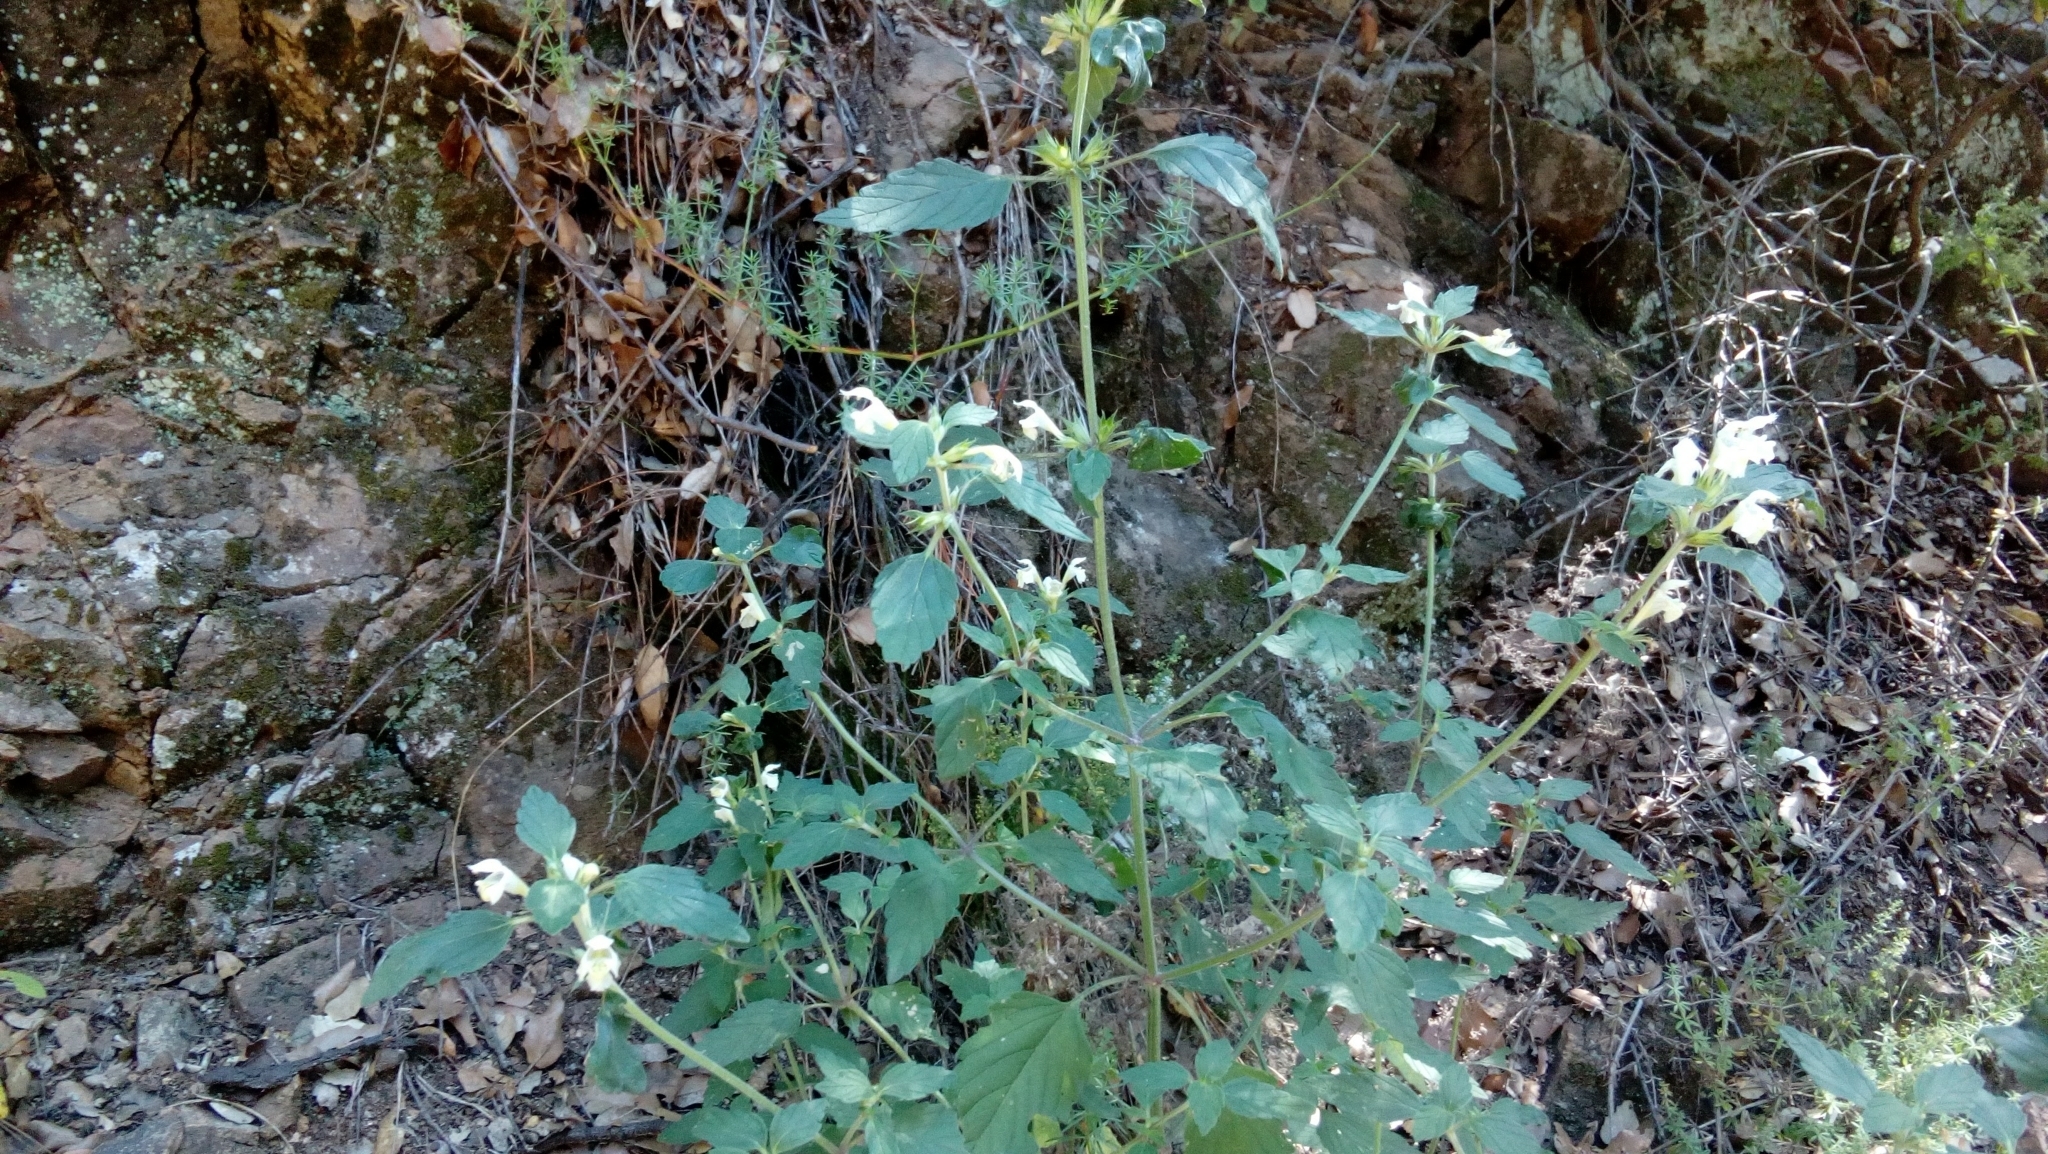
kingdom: Plantae
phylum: Tracheophyta
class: Magnoliopsida
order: Lamiales
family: Lamiaceae
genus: Galeopsis
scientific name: Galeopsis segetum
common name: Downy hemp-nettle
